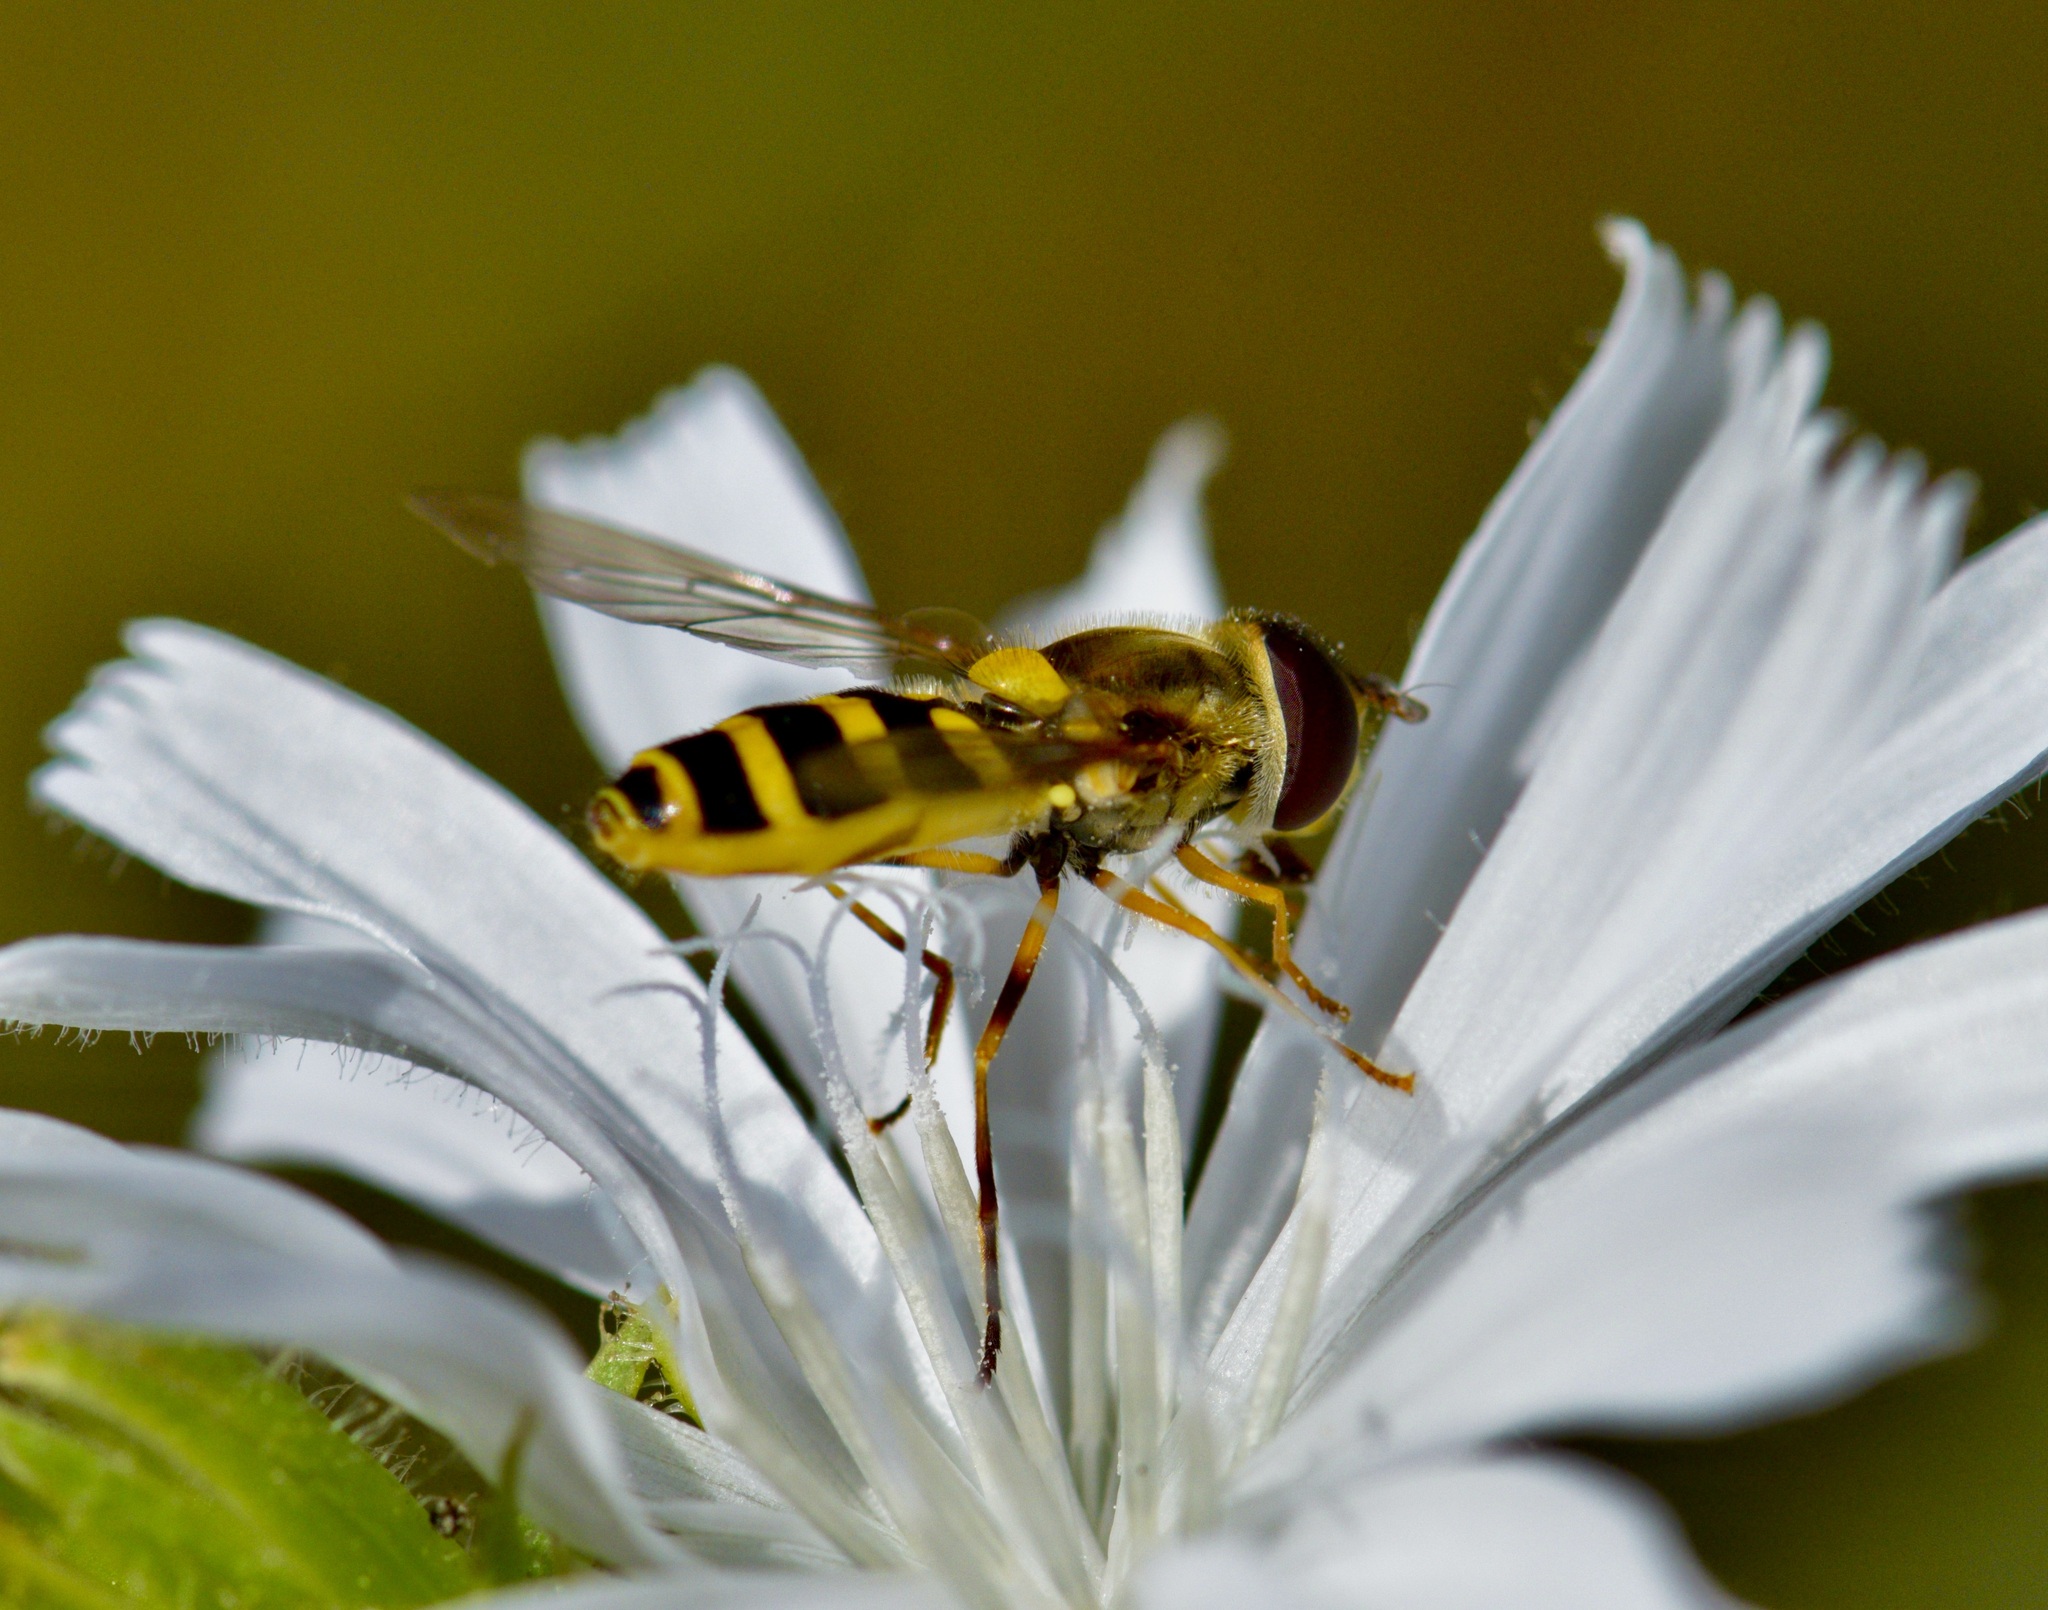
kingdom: Animalia
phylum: Arthropoda
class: Insecta
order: Diptera
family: Syrphidae
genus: Syrphus
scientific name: Syrphus rectus
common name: Yellow-legged flower fly
